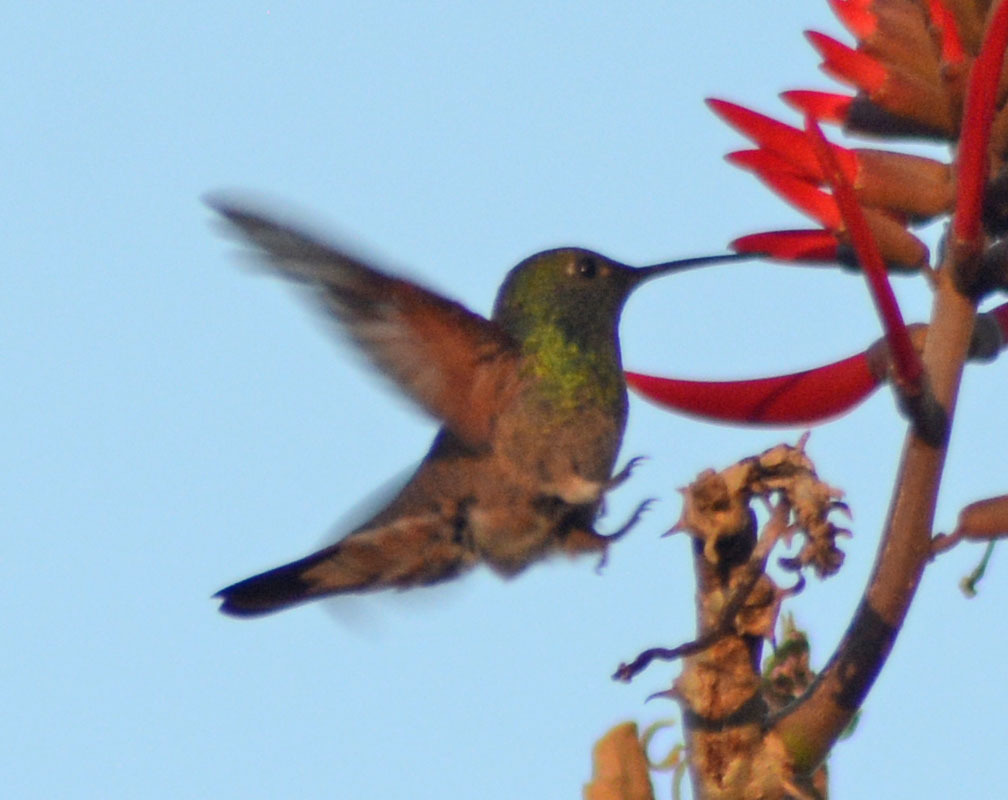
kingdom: Animalia
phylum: Chordata
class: Aves
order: Apodiformes
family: Trochilidae
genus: Saucerottia
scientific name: Saucerottia beryllina
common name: Berylline hummingbird
